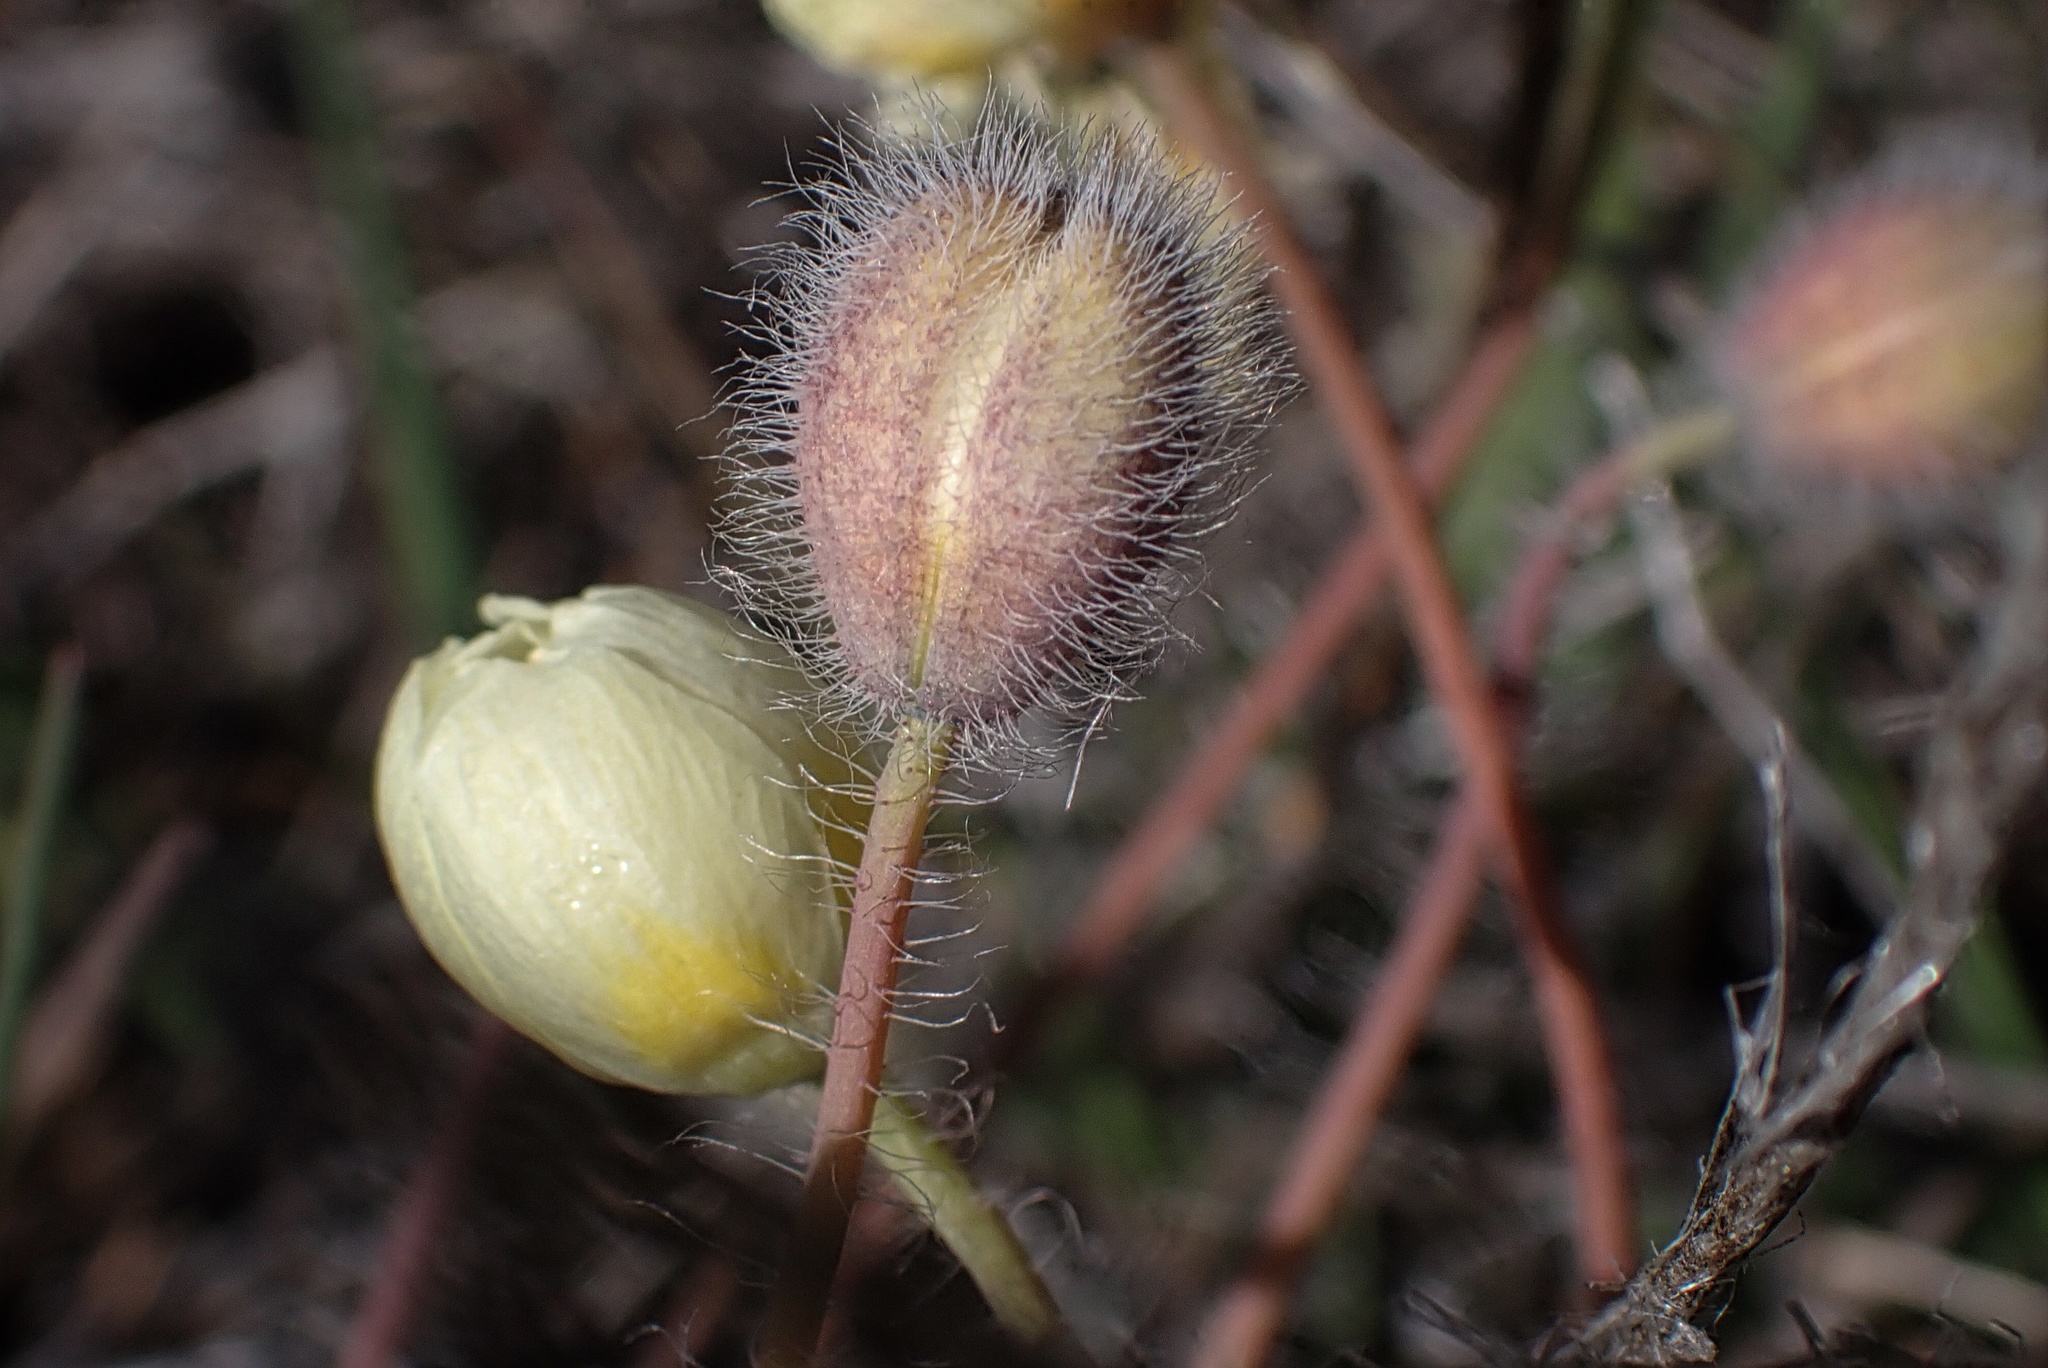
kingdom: Plantae
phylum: Tracheophyta
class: Magnoliopsida
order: Ranunculales
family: Papaveraceae
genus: Platystemon
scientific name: Platystemon californicus
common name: Cream-cups
